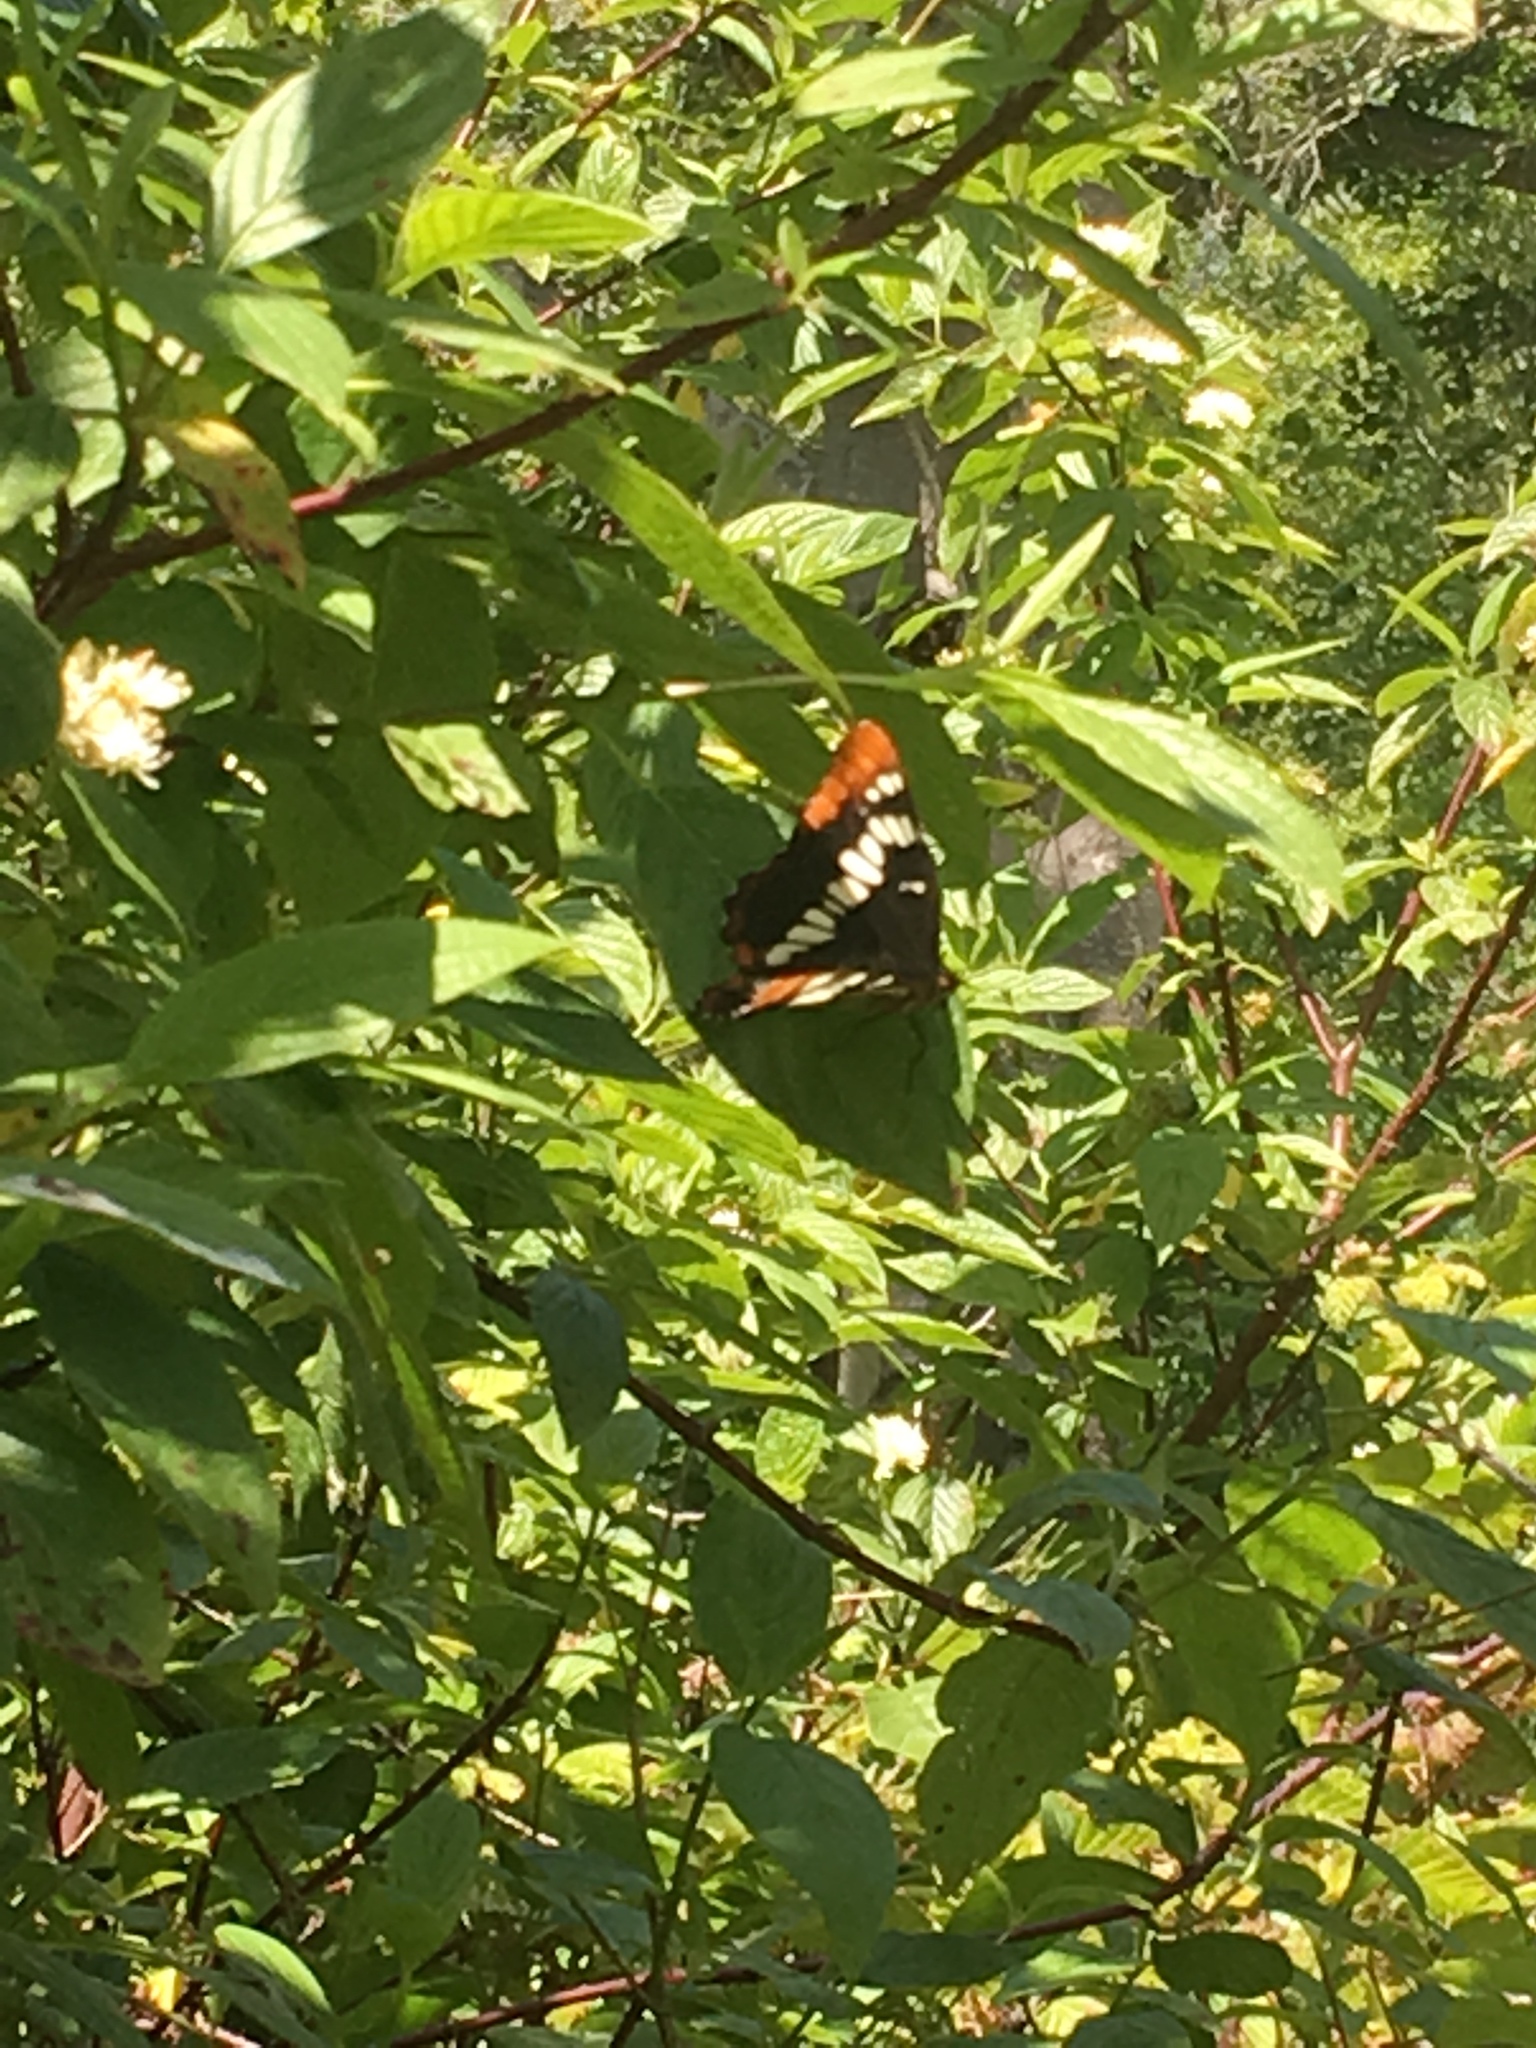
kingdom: Animalia
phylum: Arthropoda
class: Insecta
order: Lepidoptera
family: Nymphalidae
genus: Limenitis
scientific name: Limenitis lorquini
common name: Lorquin's admiral
